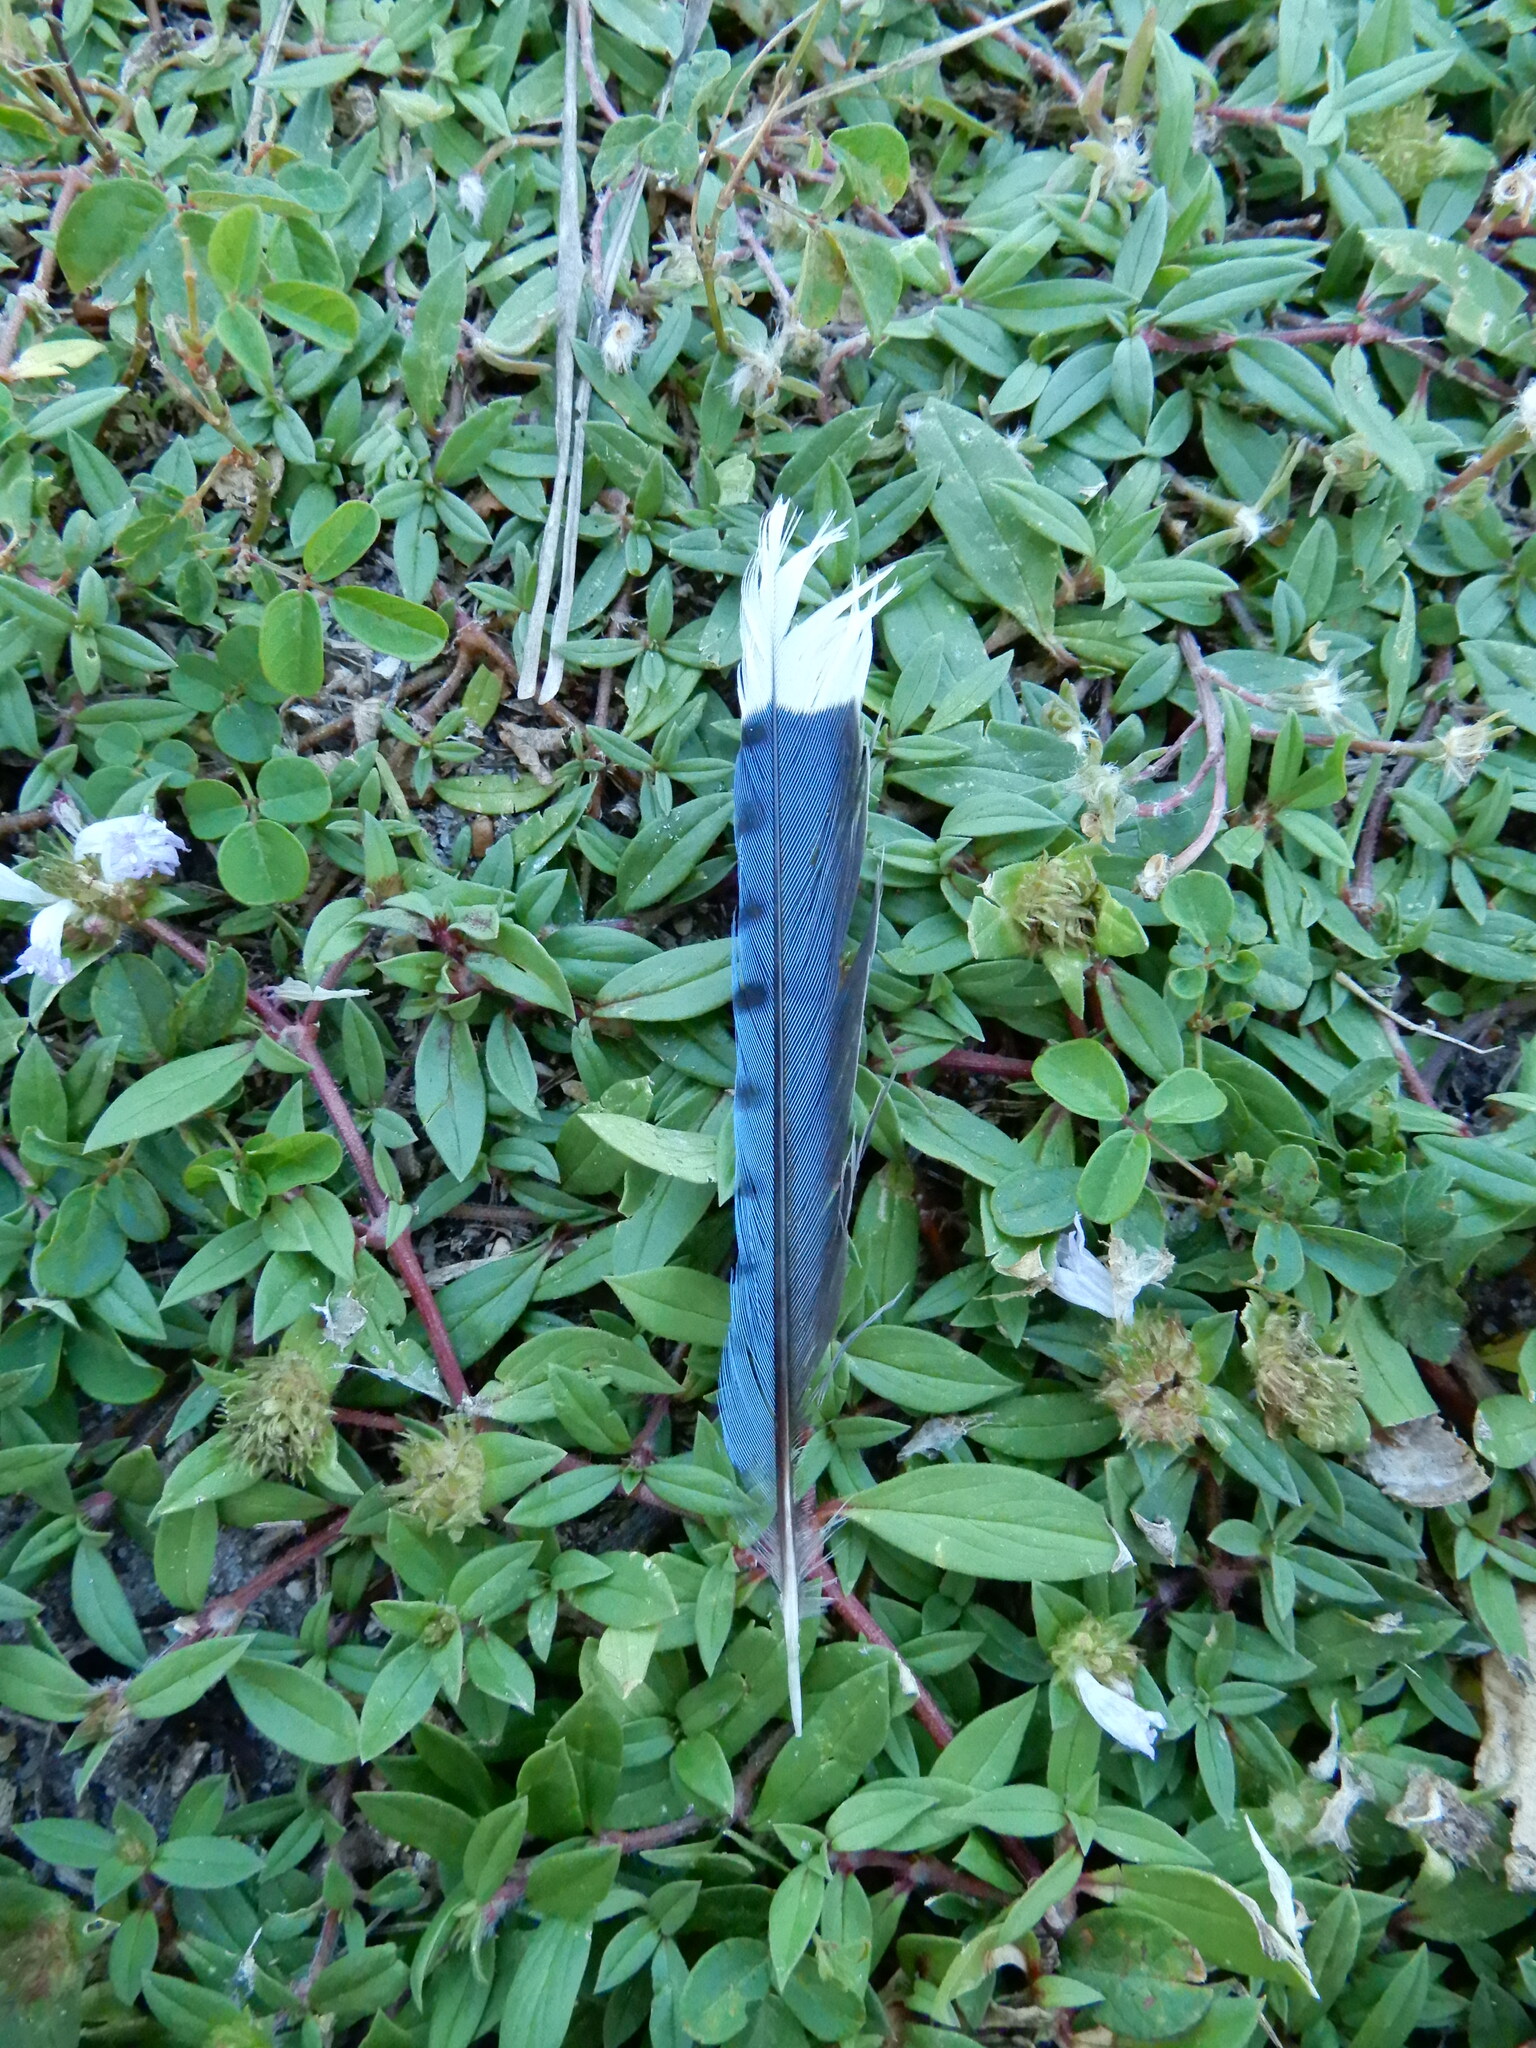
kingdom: Animalia
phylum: Chordata
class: Aves
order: Passeriformes
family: Corvidae
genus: Cyanocitta
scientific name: Cyanocitta cristata
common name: Blue jay
